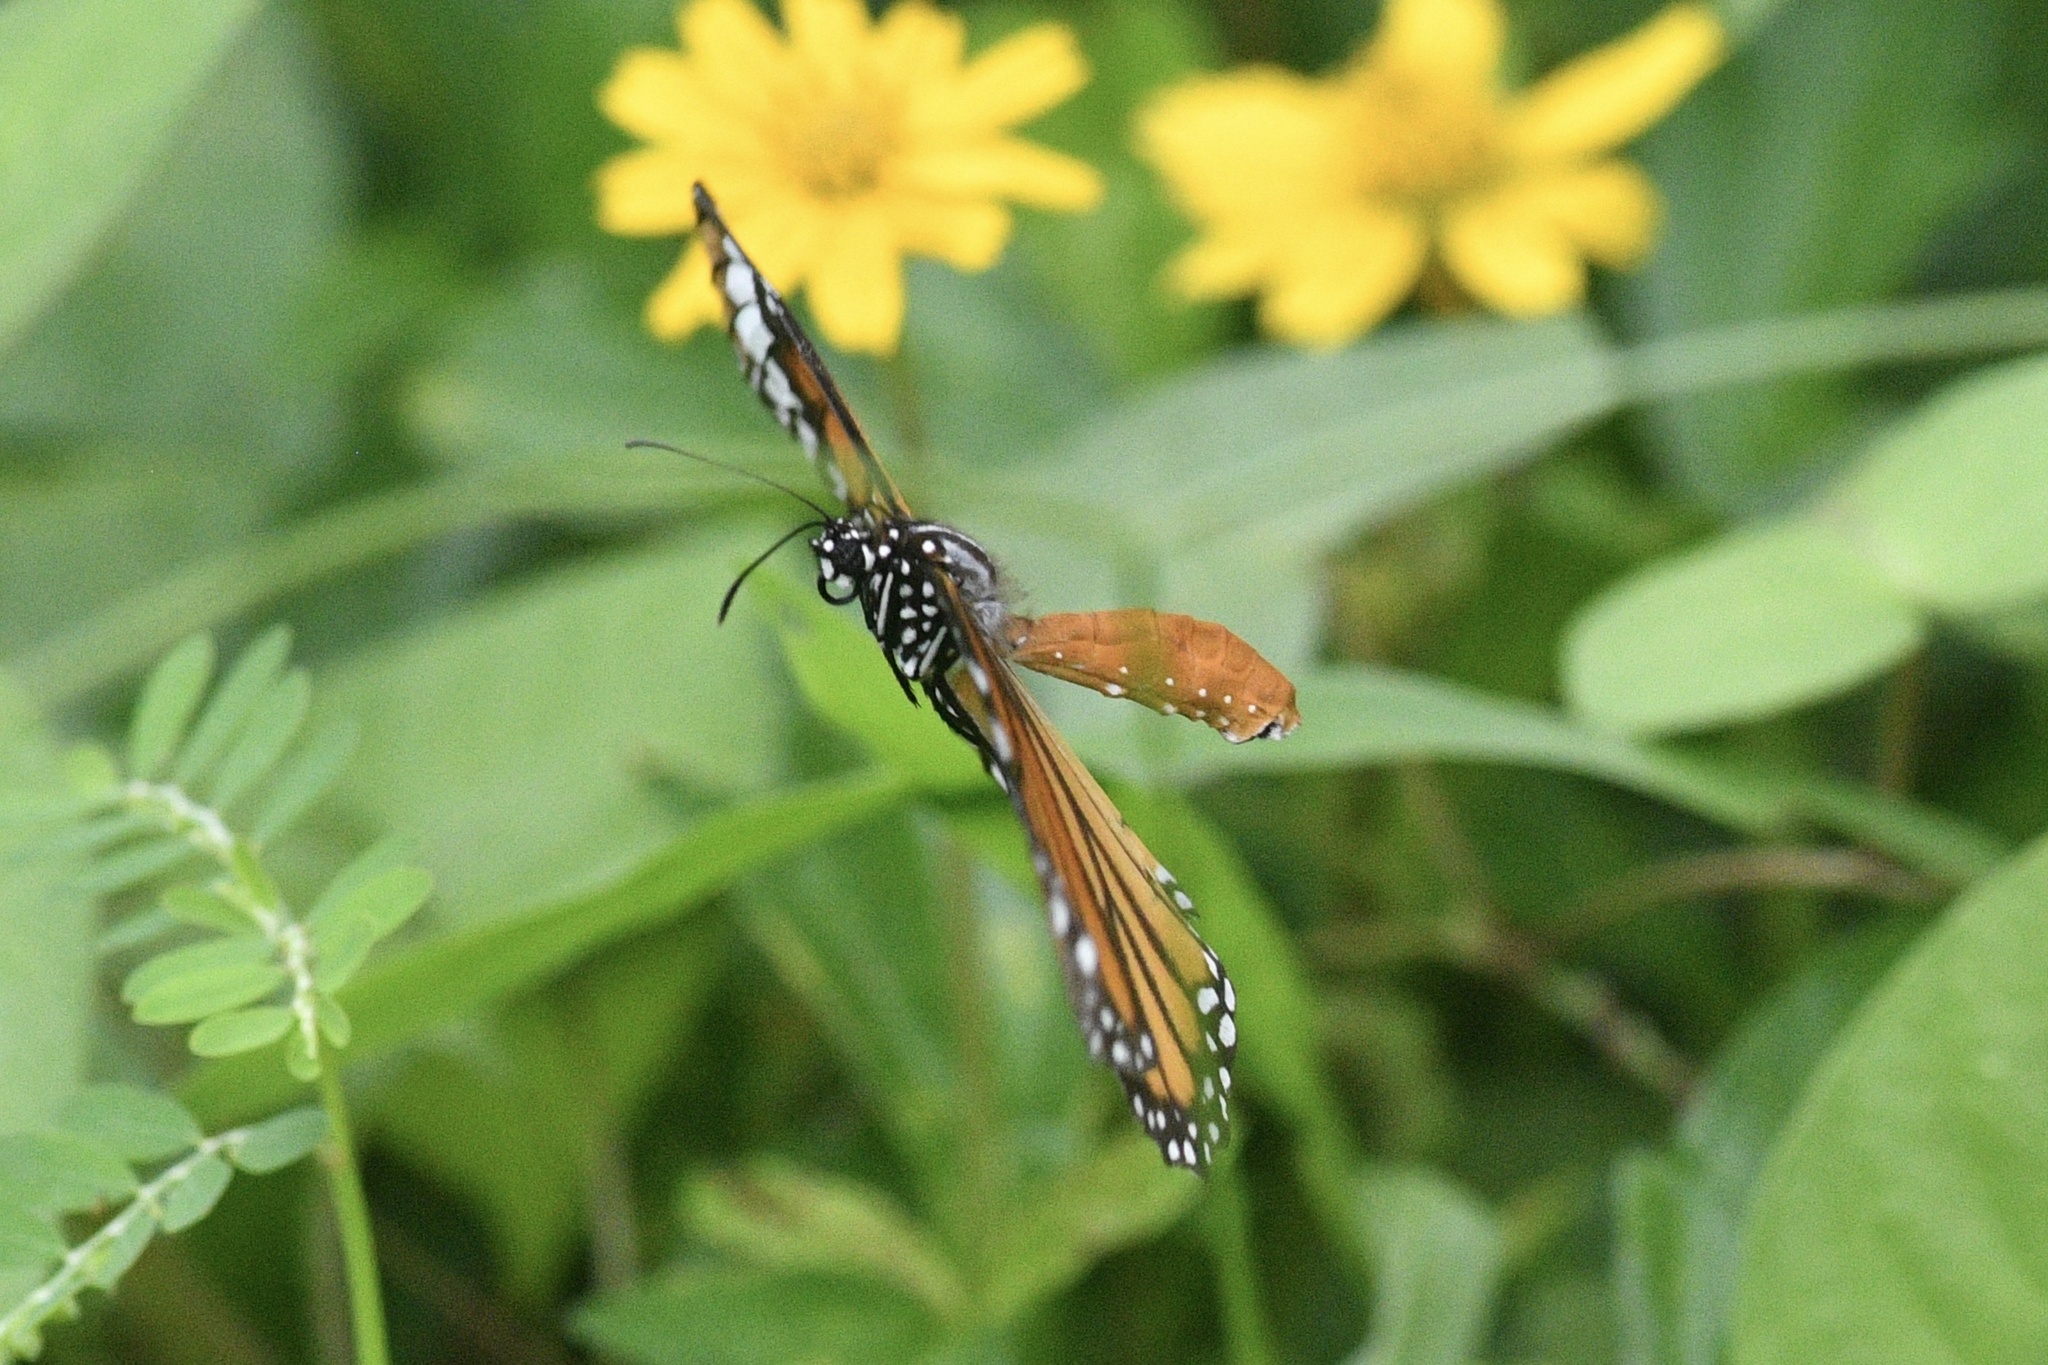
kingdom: Animalia
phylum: Arthropoda
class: Insecta
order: Lepidoptera
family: Nymphalidae
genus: Danaus
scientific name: Danaus genutia
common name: Common tiger butterfly
